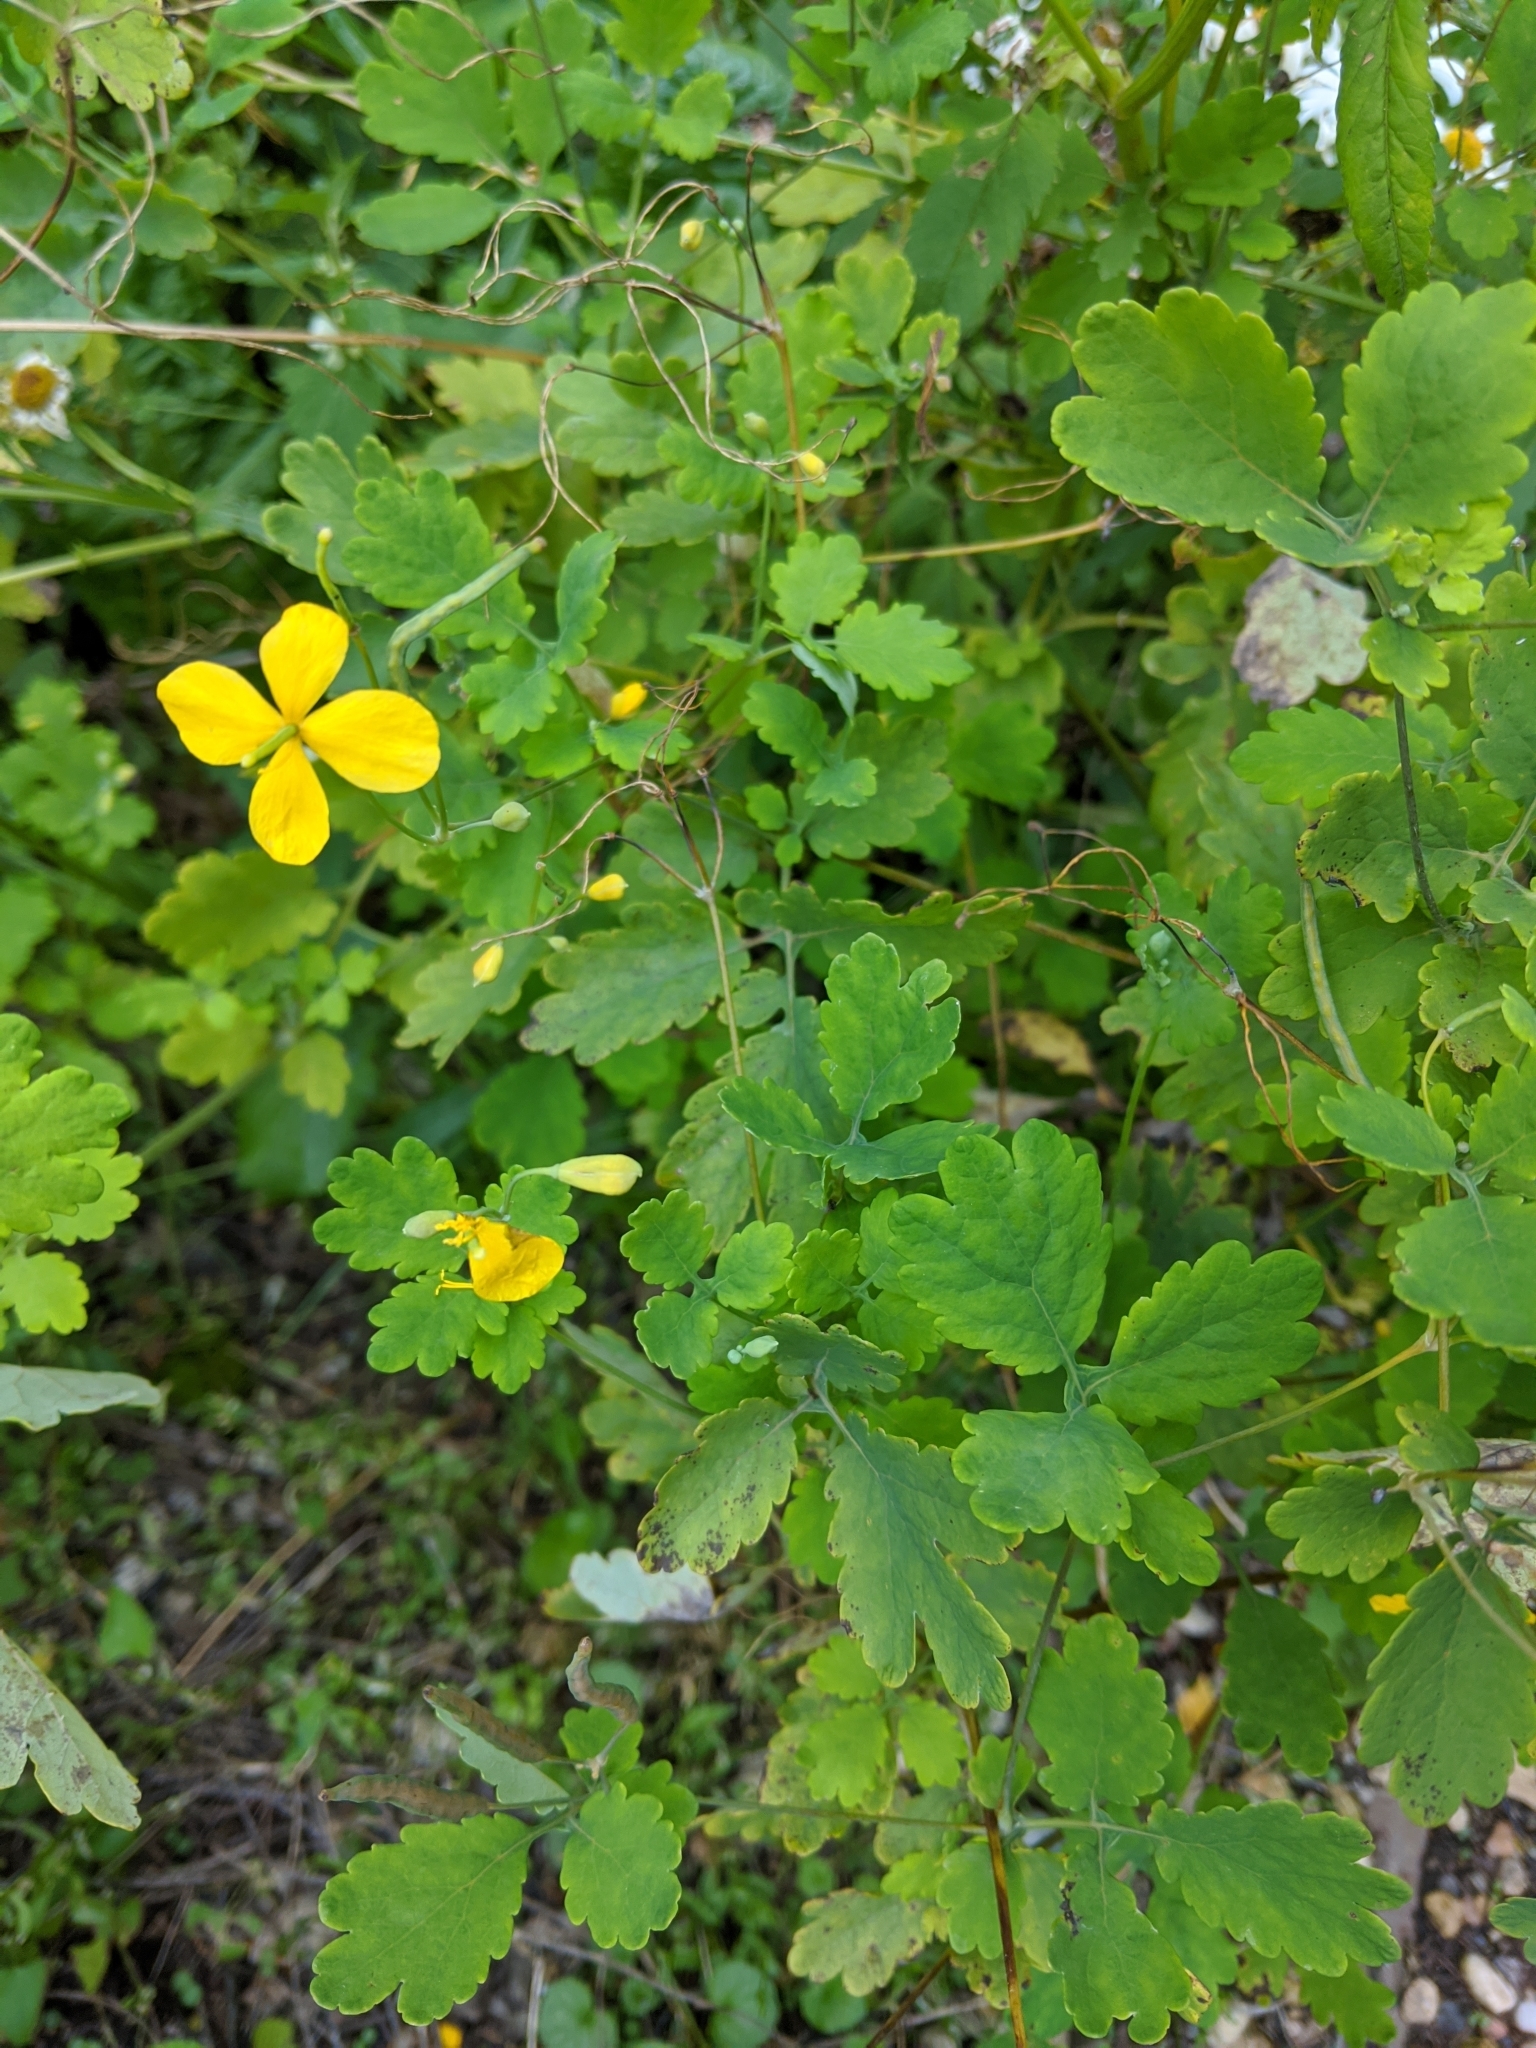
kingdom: Plantae
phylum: Tracheophyta
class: Magnoliopsida
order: Ranunculales
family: Papaveraceae
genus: Chelidonium
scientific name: Chelidonium majus
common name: Greater celandine
